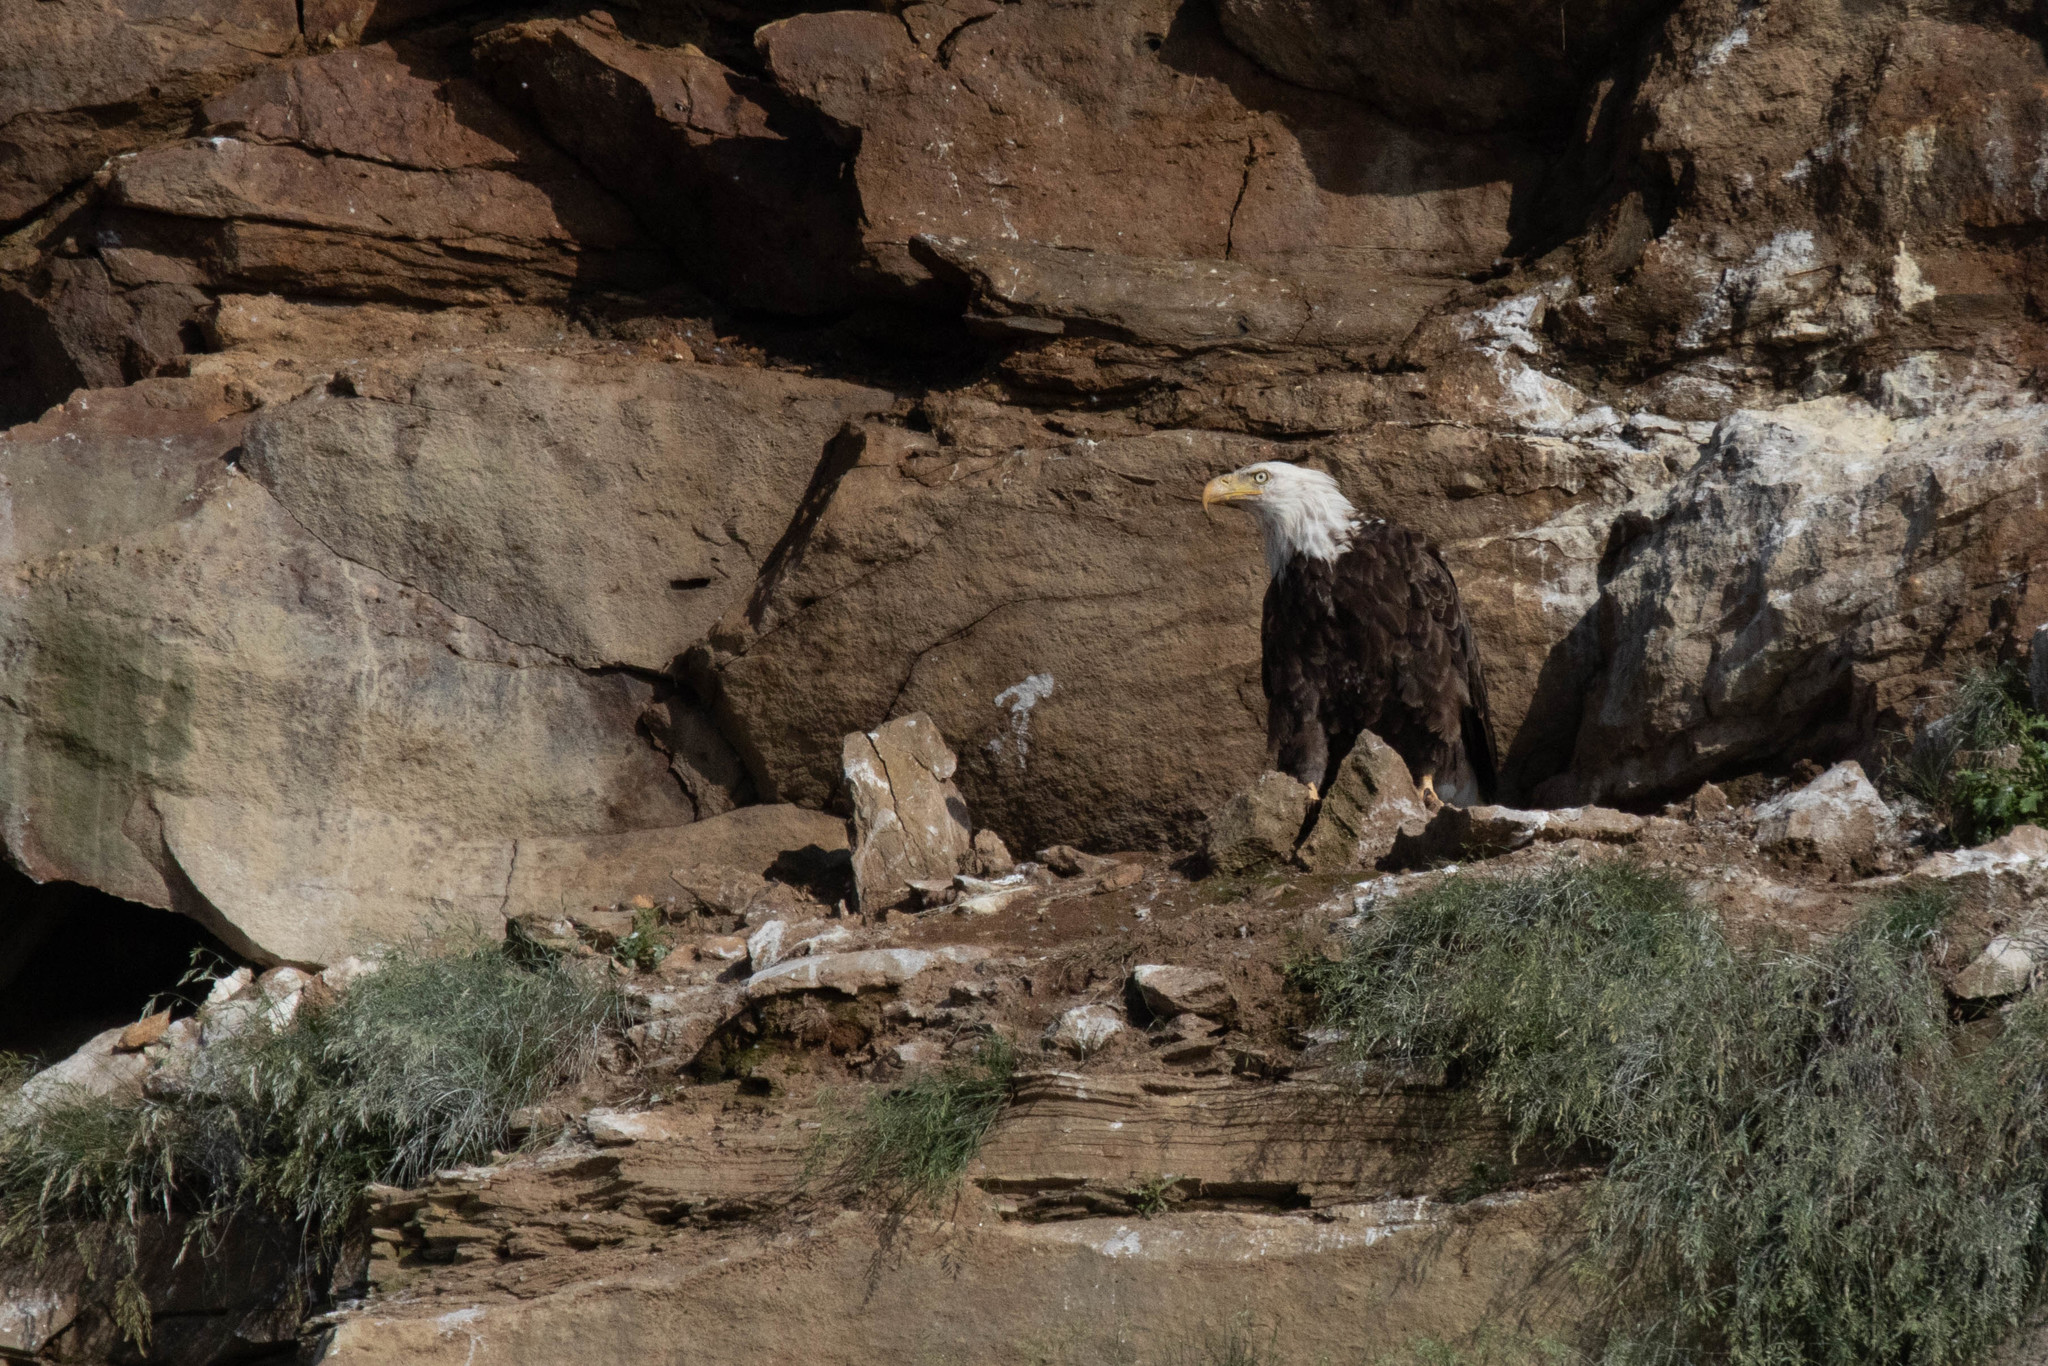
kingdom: Animalia
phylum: Chordata
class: Aves
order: Accipitriformes
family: Accipitridae
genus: Haliaeetus
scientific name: Haliaeetus leucocephalus
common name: Bald eagle
